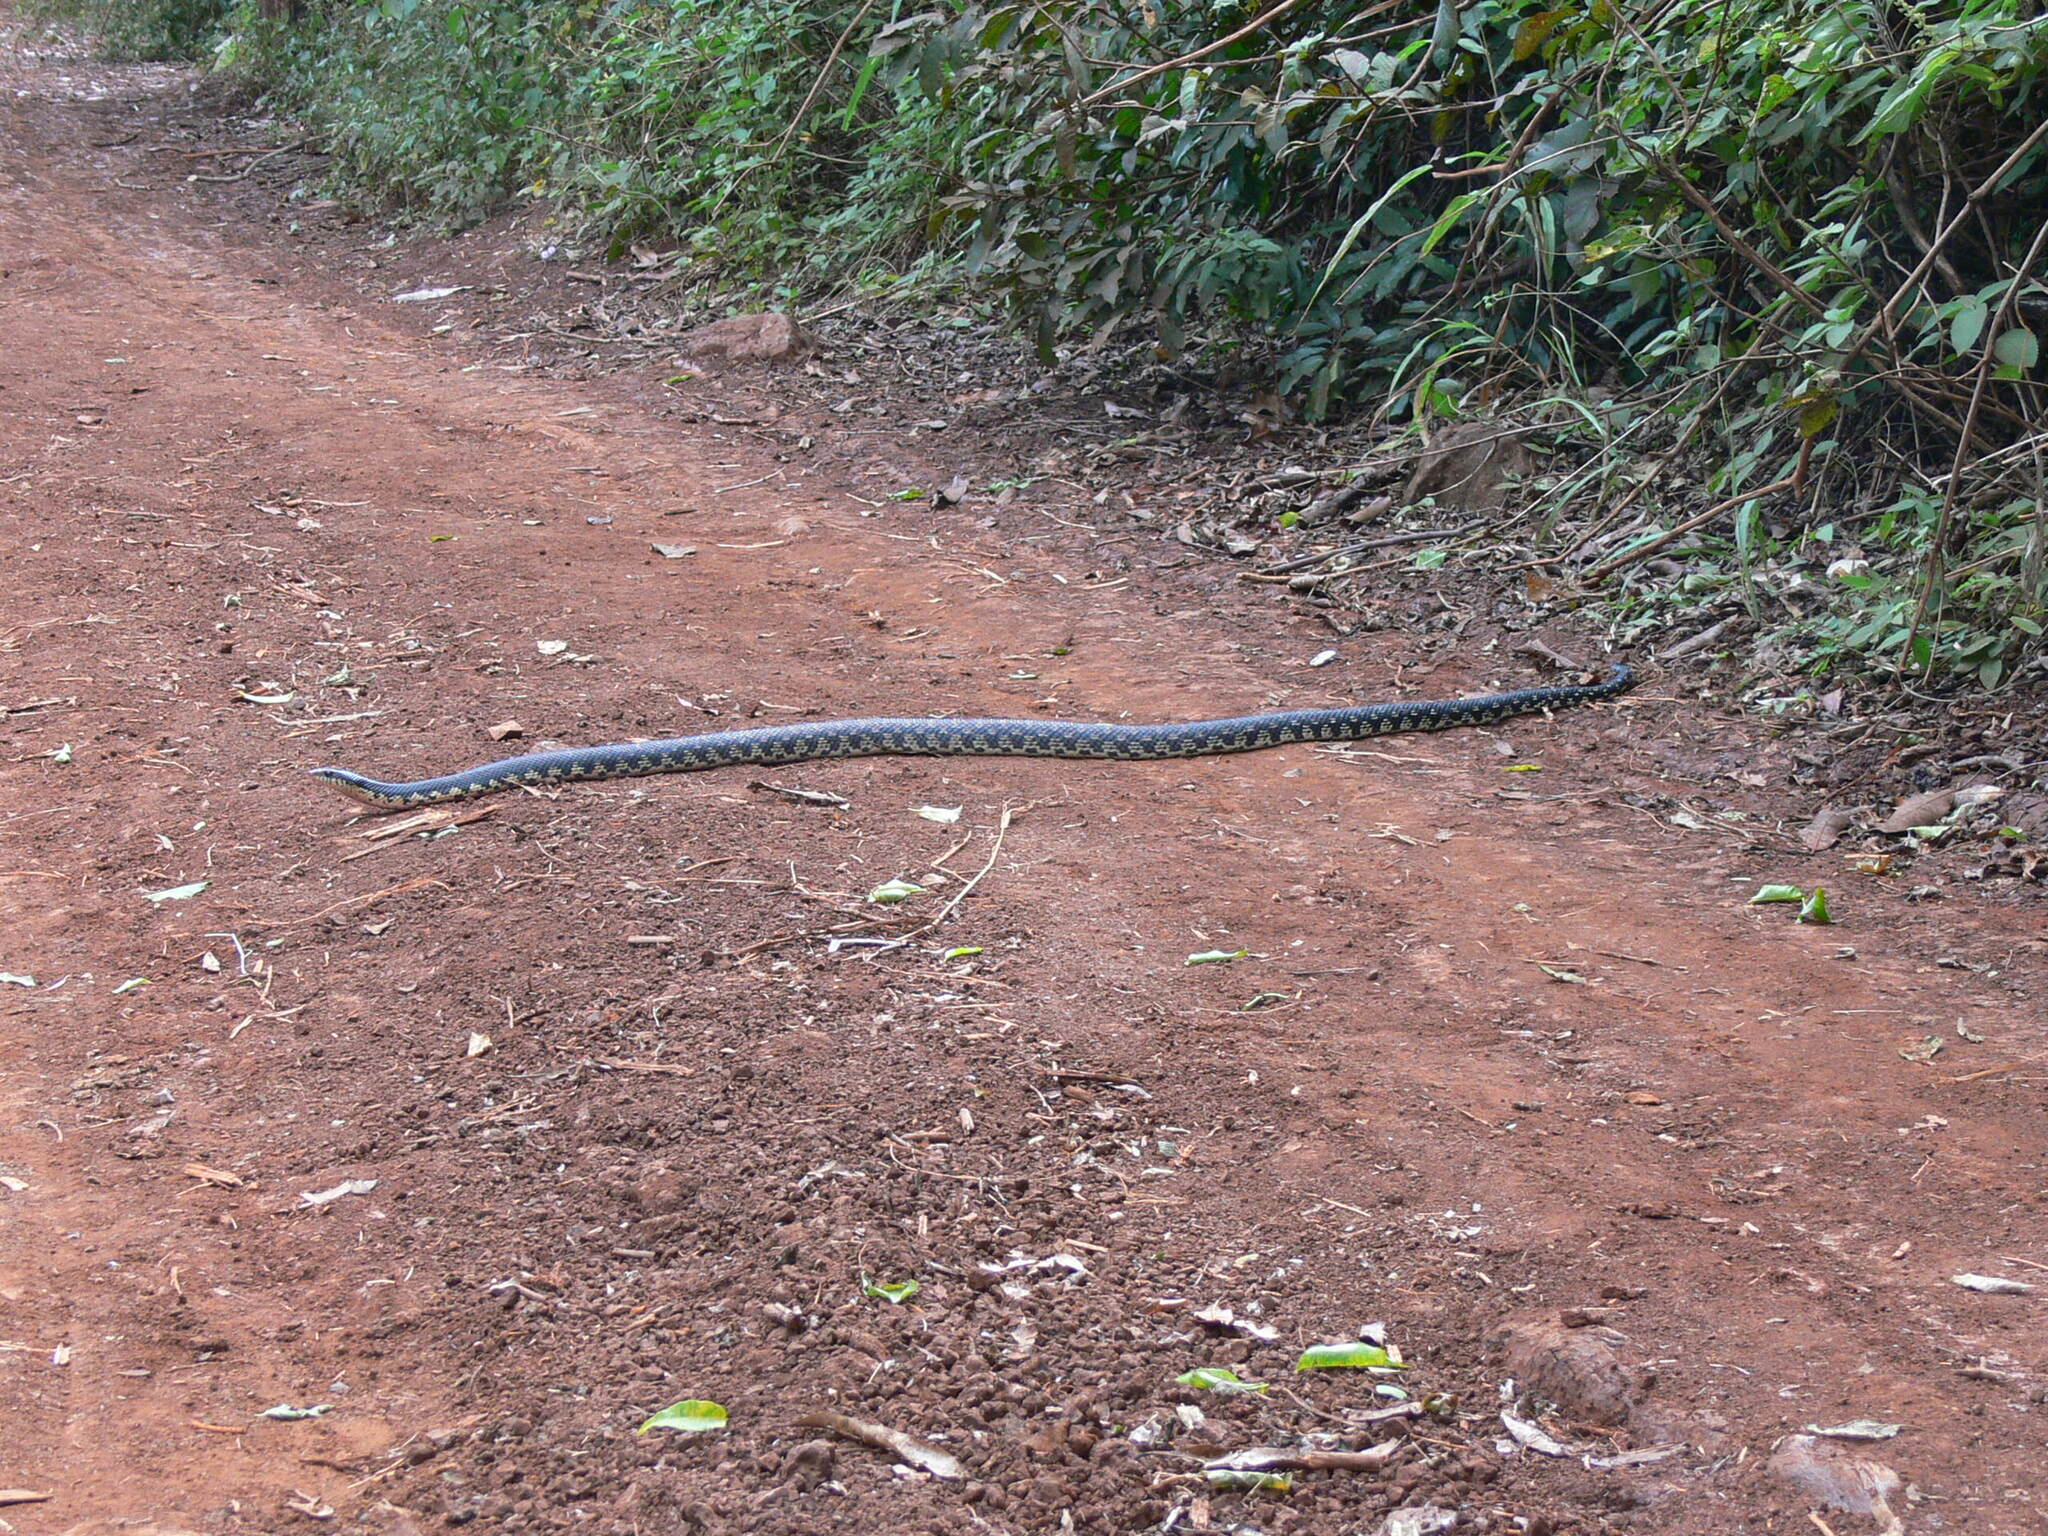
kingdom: Animalia
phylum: Chordata
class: Squamata
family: Pseudoxyrhophiidae
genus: Leioheterodon
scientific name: Leioheterodon madagascariensis
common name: Malagasy giant hognose snake
